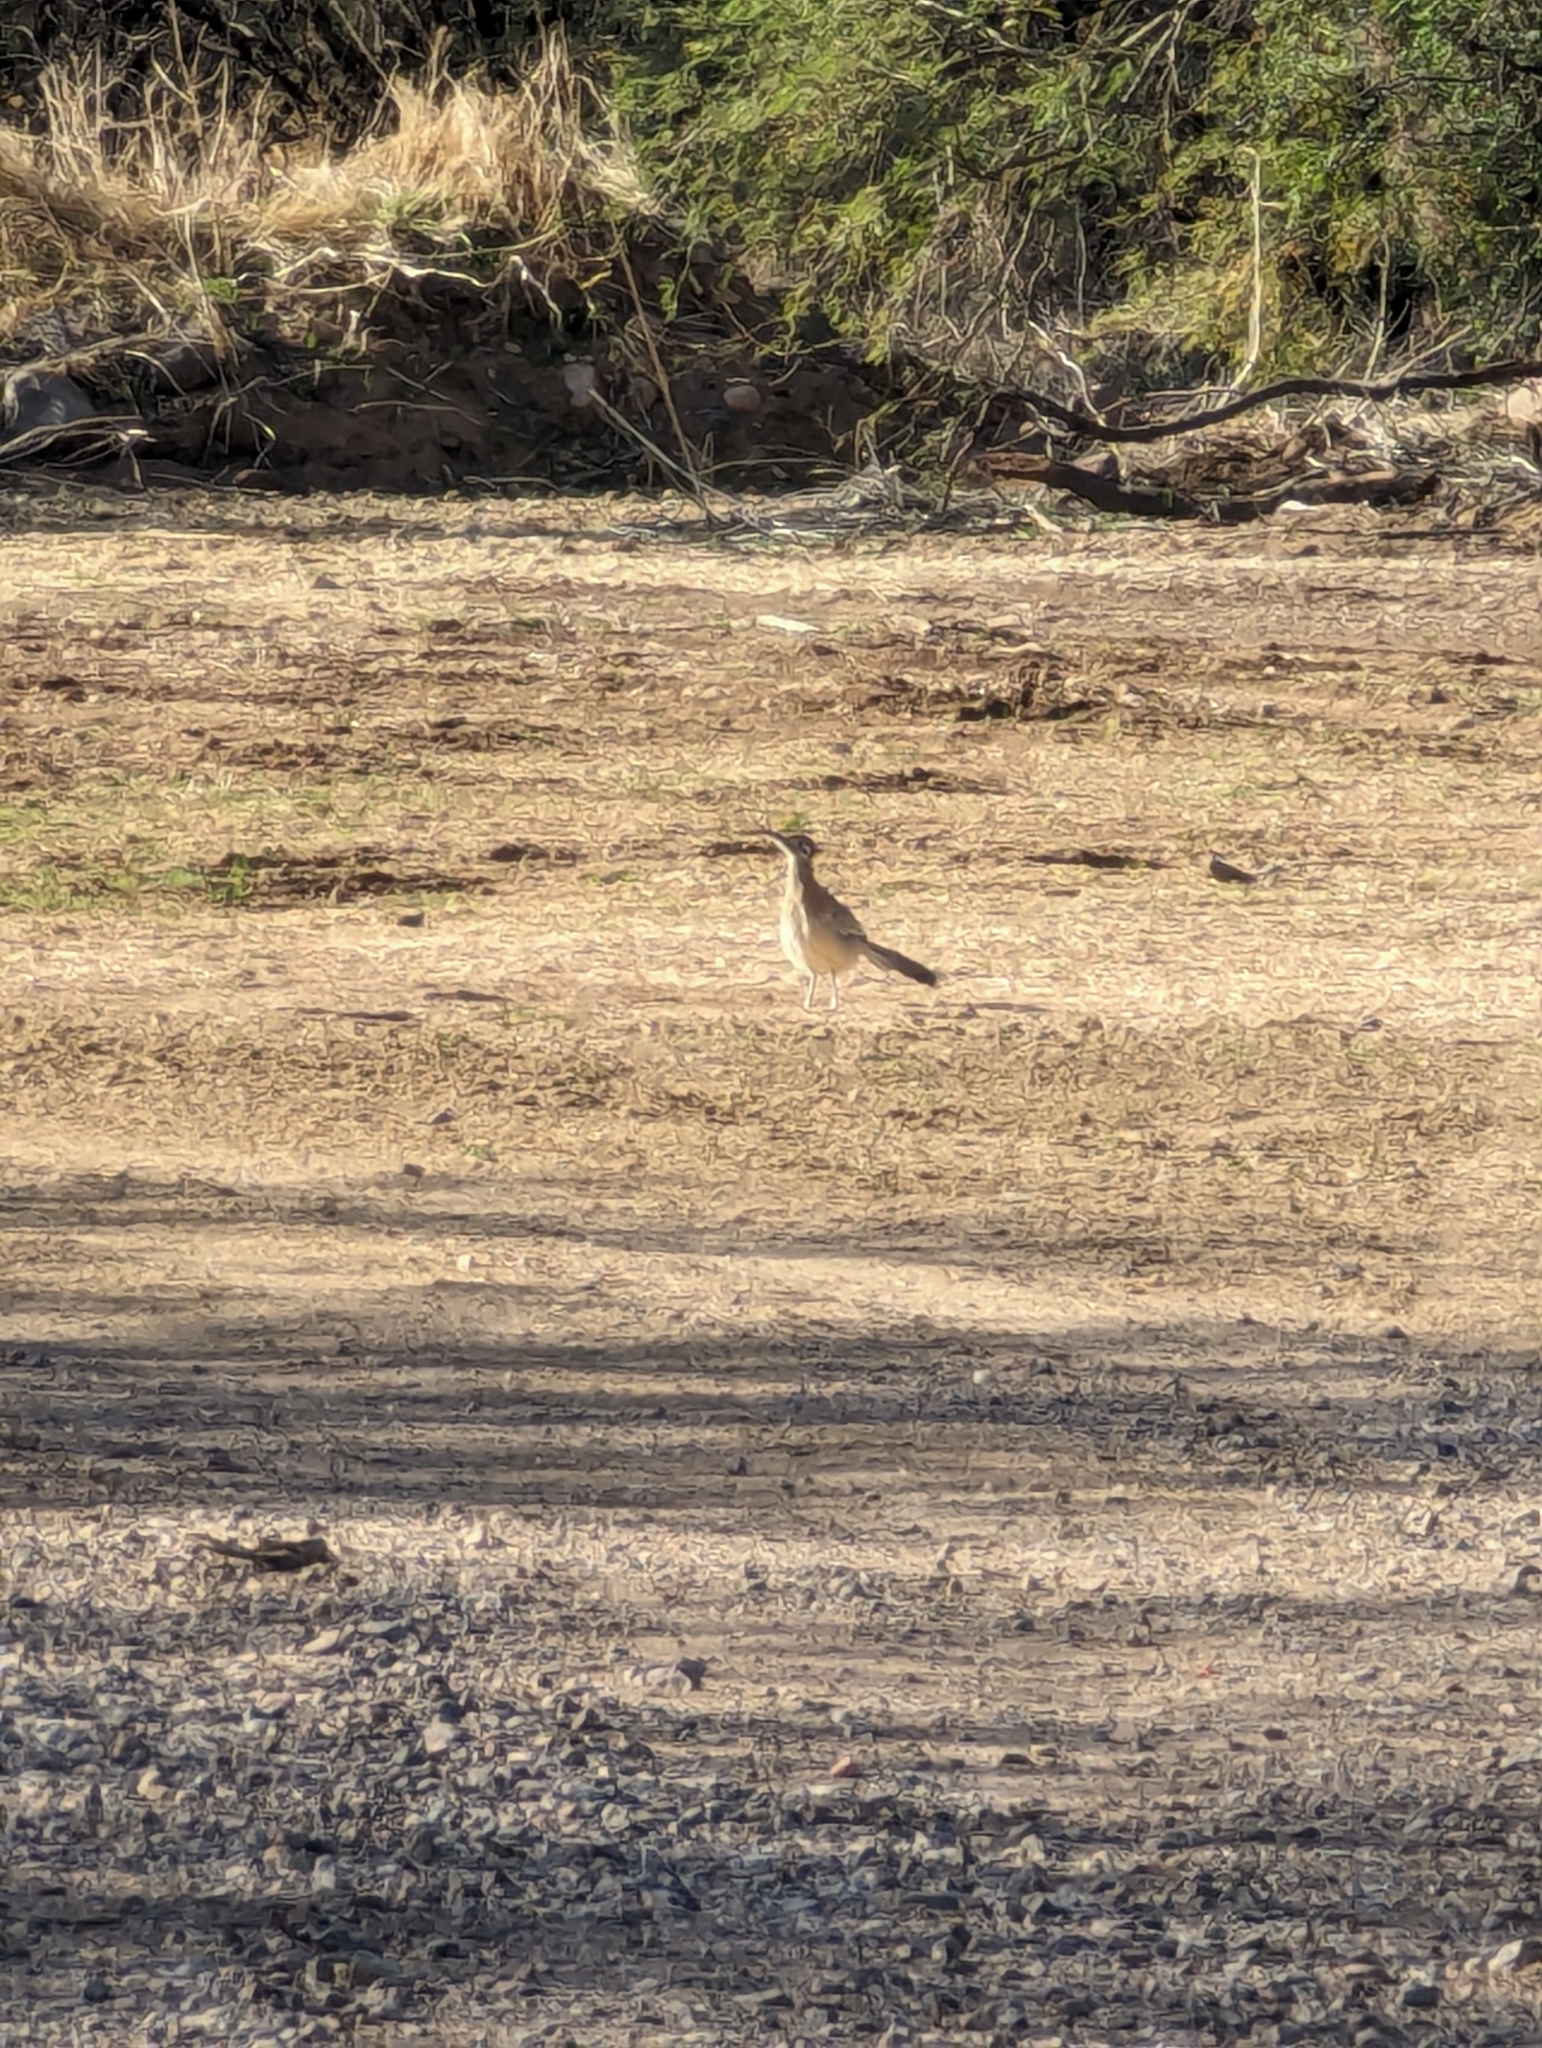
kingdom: Animalia
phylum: Chordata
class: Aves
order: Cuculiformes
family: Cuculidae
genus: Geococcyx
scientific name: Geococcyx californianus
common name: Greater roadrunner
